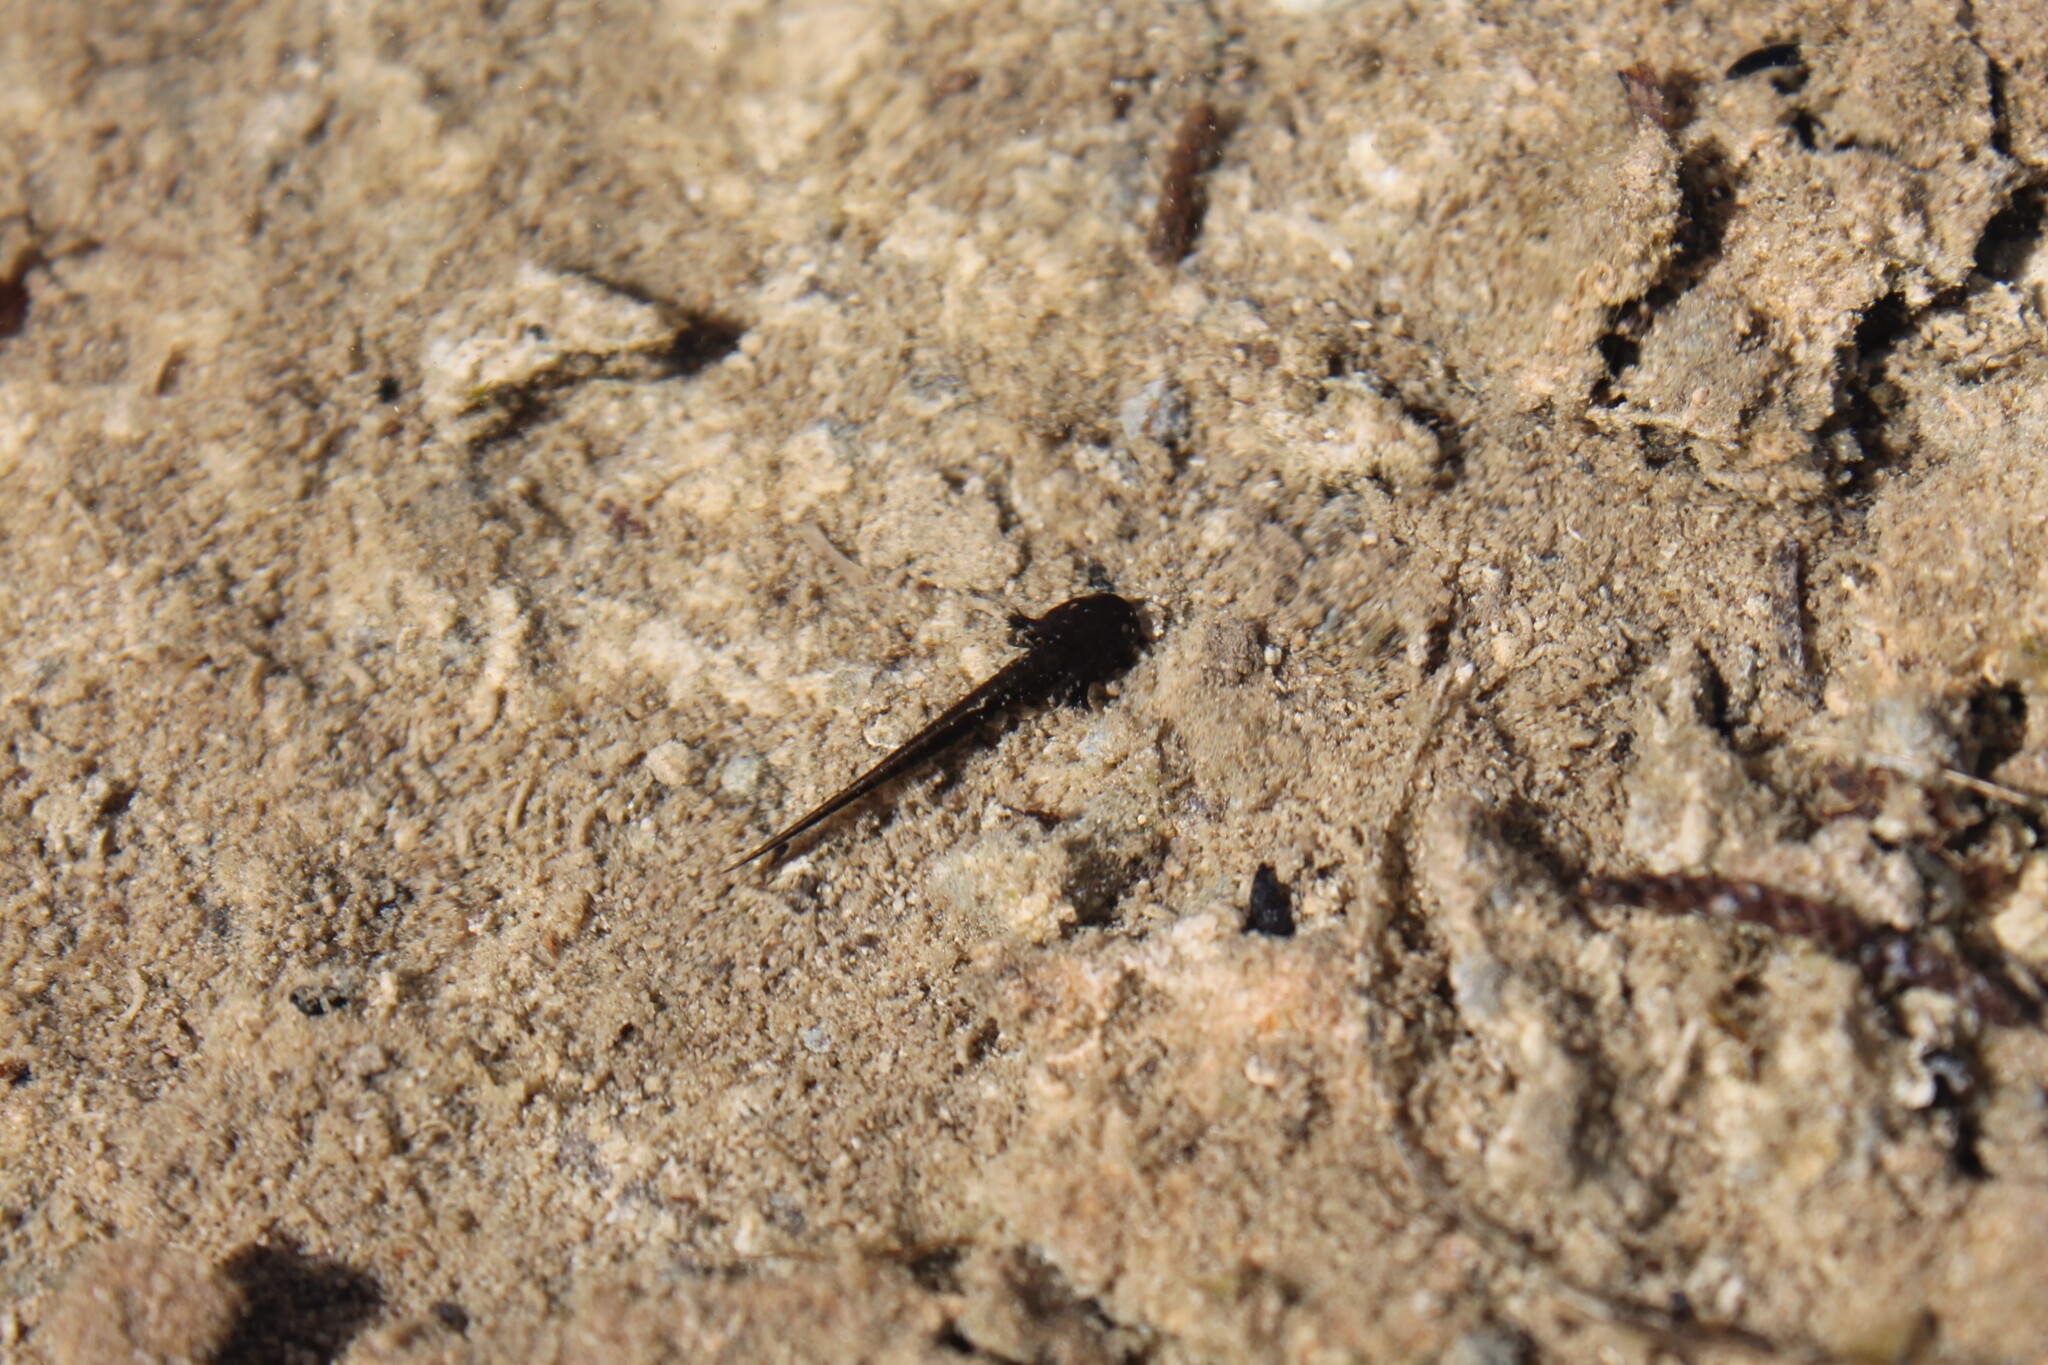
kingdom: Animalia
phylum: Chordata
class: Amphibia
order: Caudata
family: Ambystomatidae
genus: Ambystoma
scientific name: Ambystoma barbouri
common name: Streamside salamander
